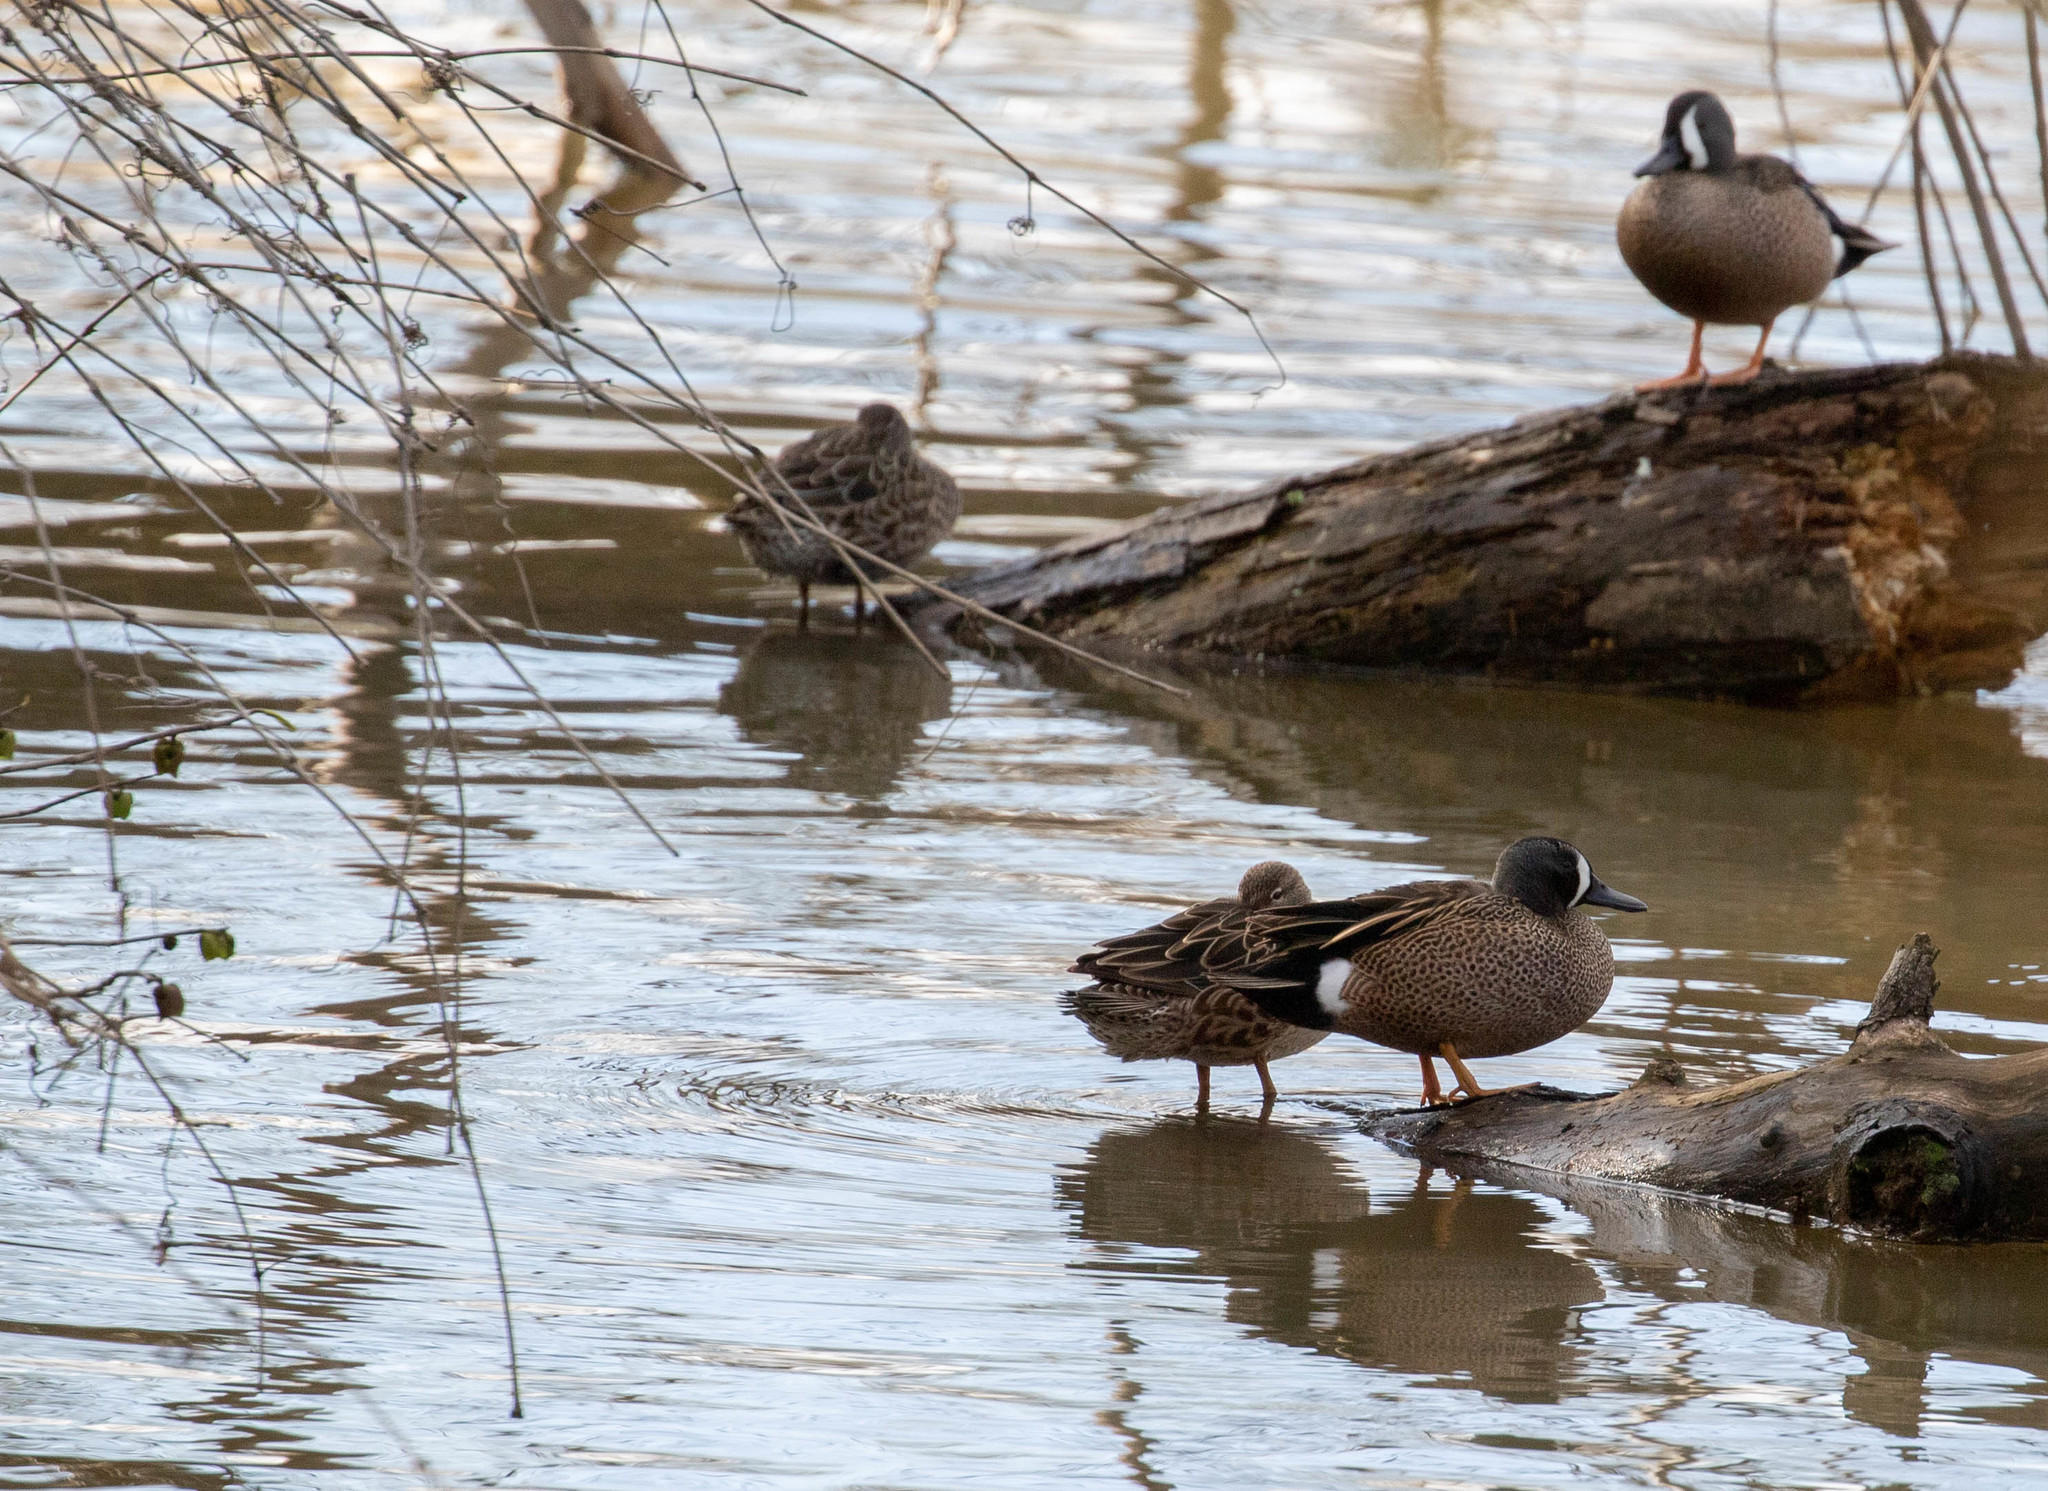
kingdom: Animalia
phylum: Chordata
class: Aves
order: Anseriformes
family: Anatidae
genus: Spatula
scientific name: Spatula discors
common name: Blue-winged teal
